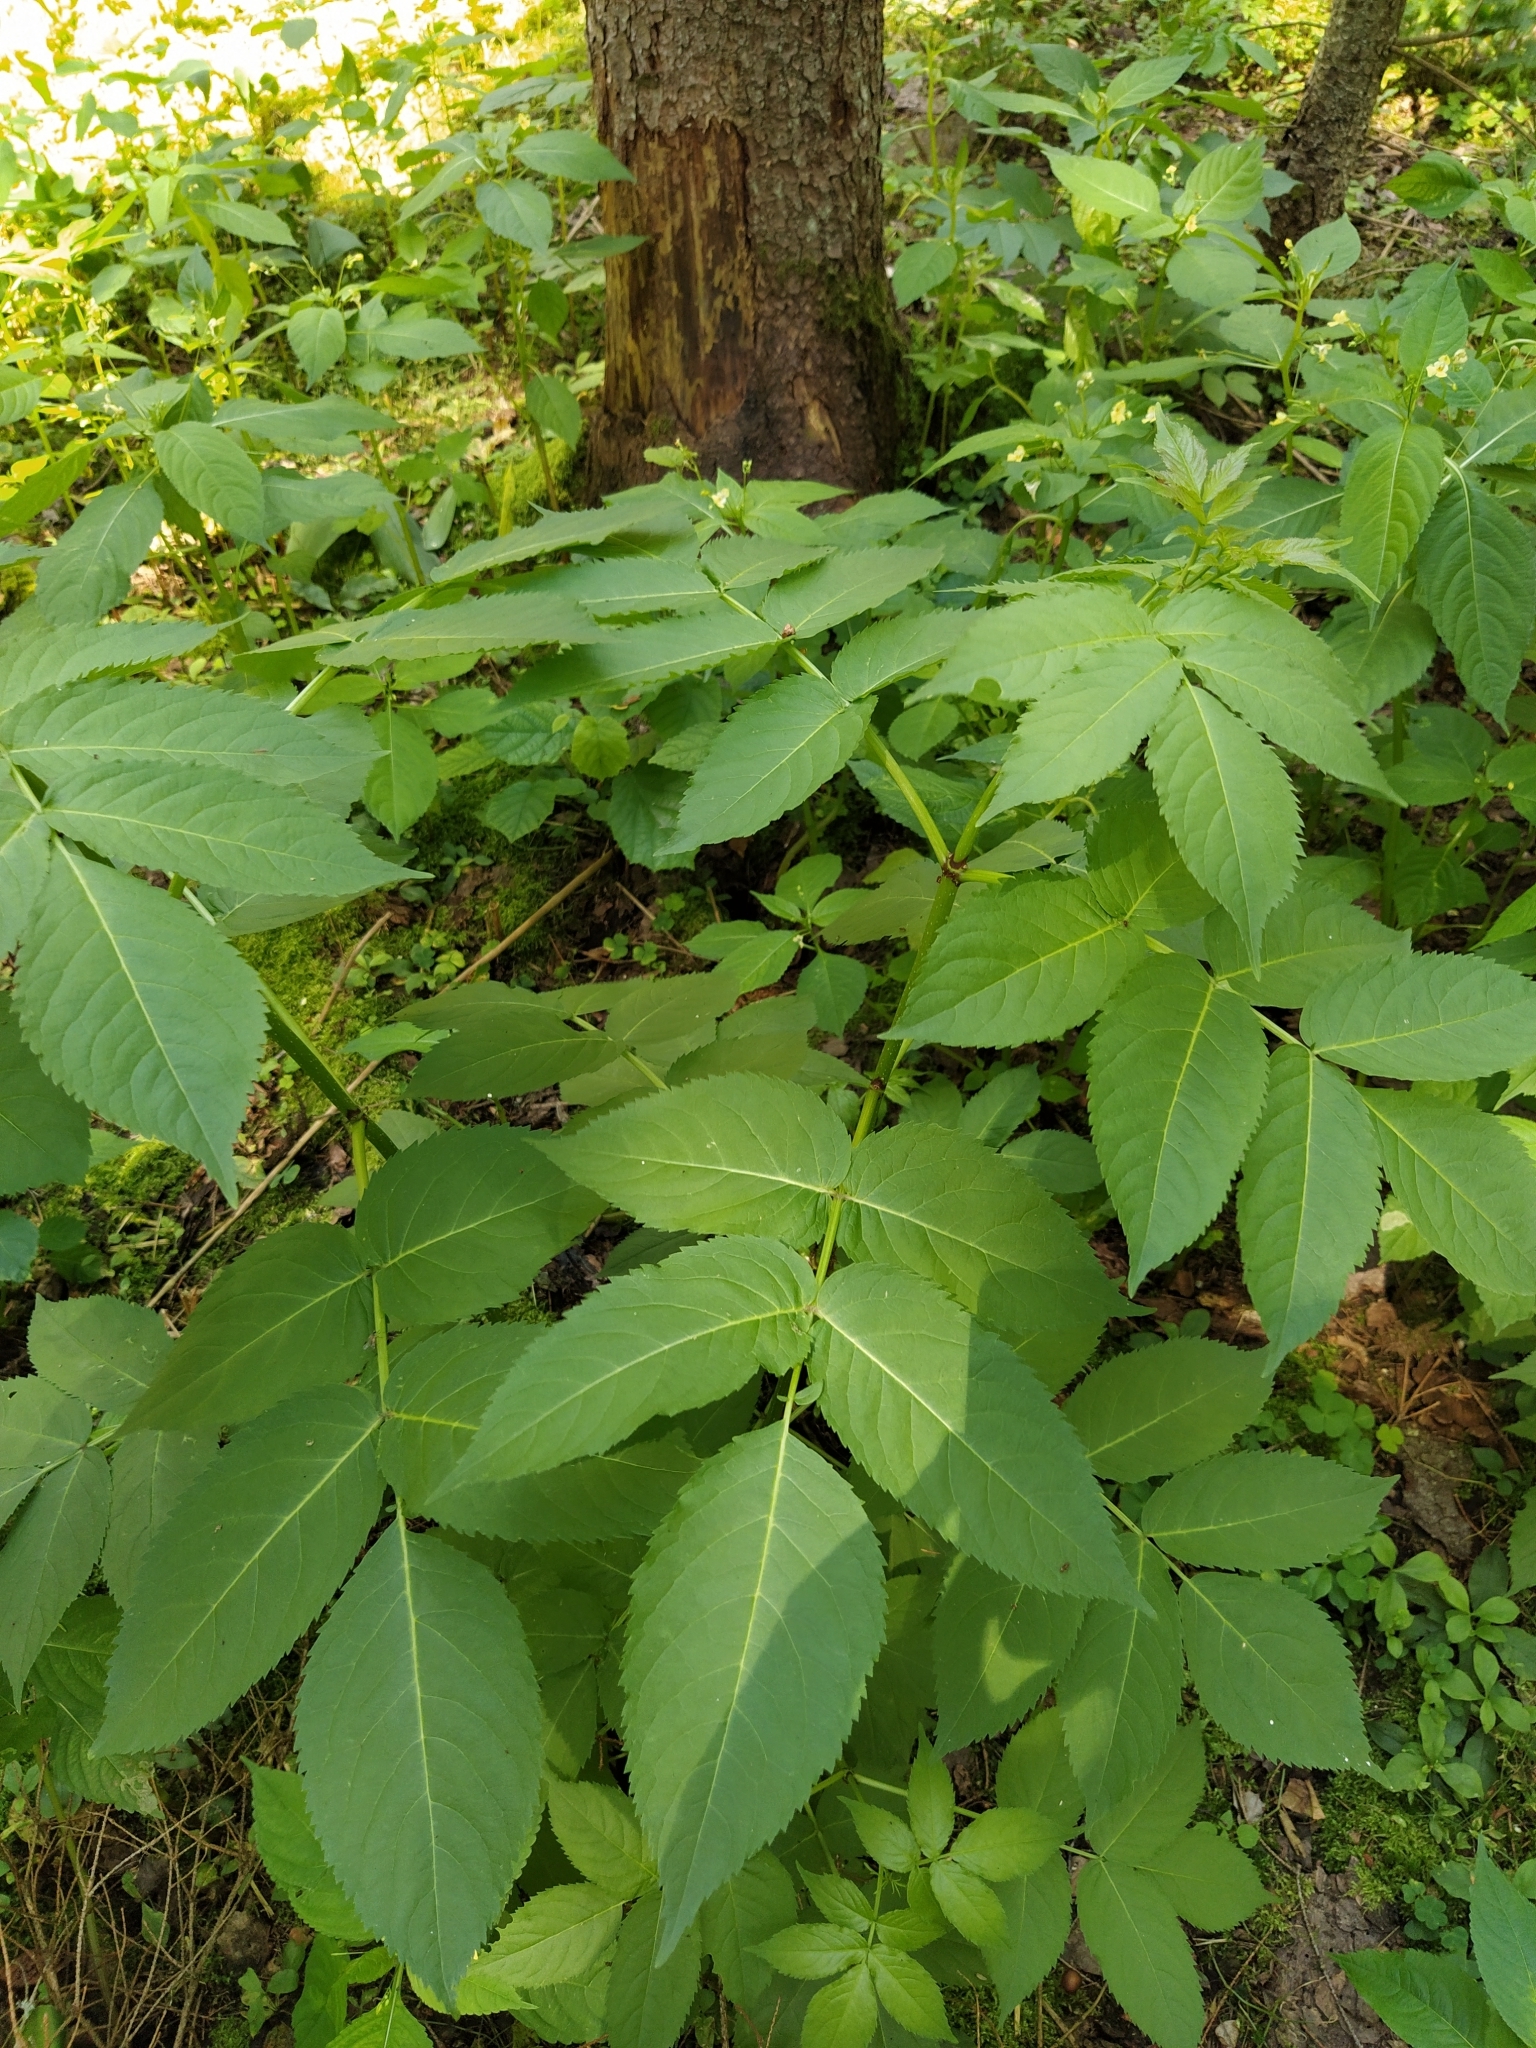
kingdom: Plantae
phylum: Tracheophyta
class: Magnoliopsida
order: Dipsacales
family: Viburnaceae
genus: Sambucus
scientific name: Sambucus racemosa
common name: Red-berried elder
